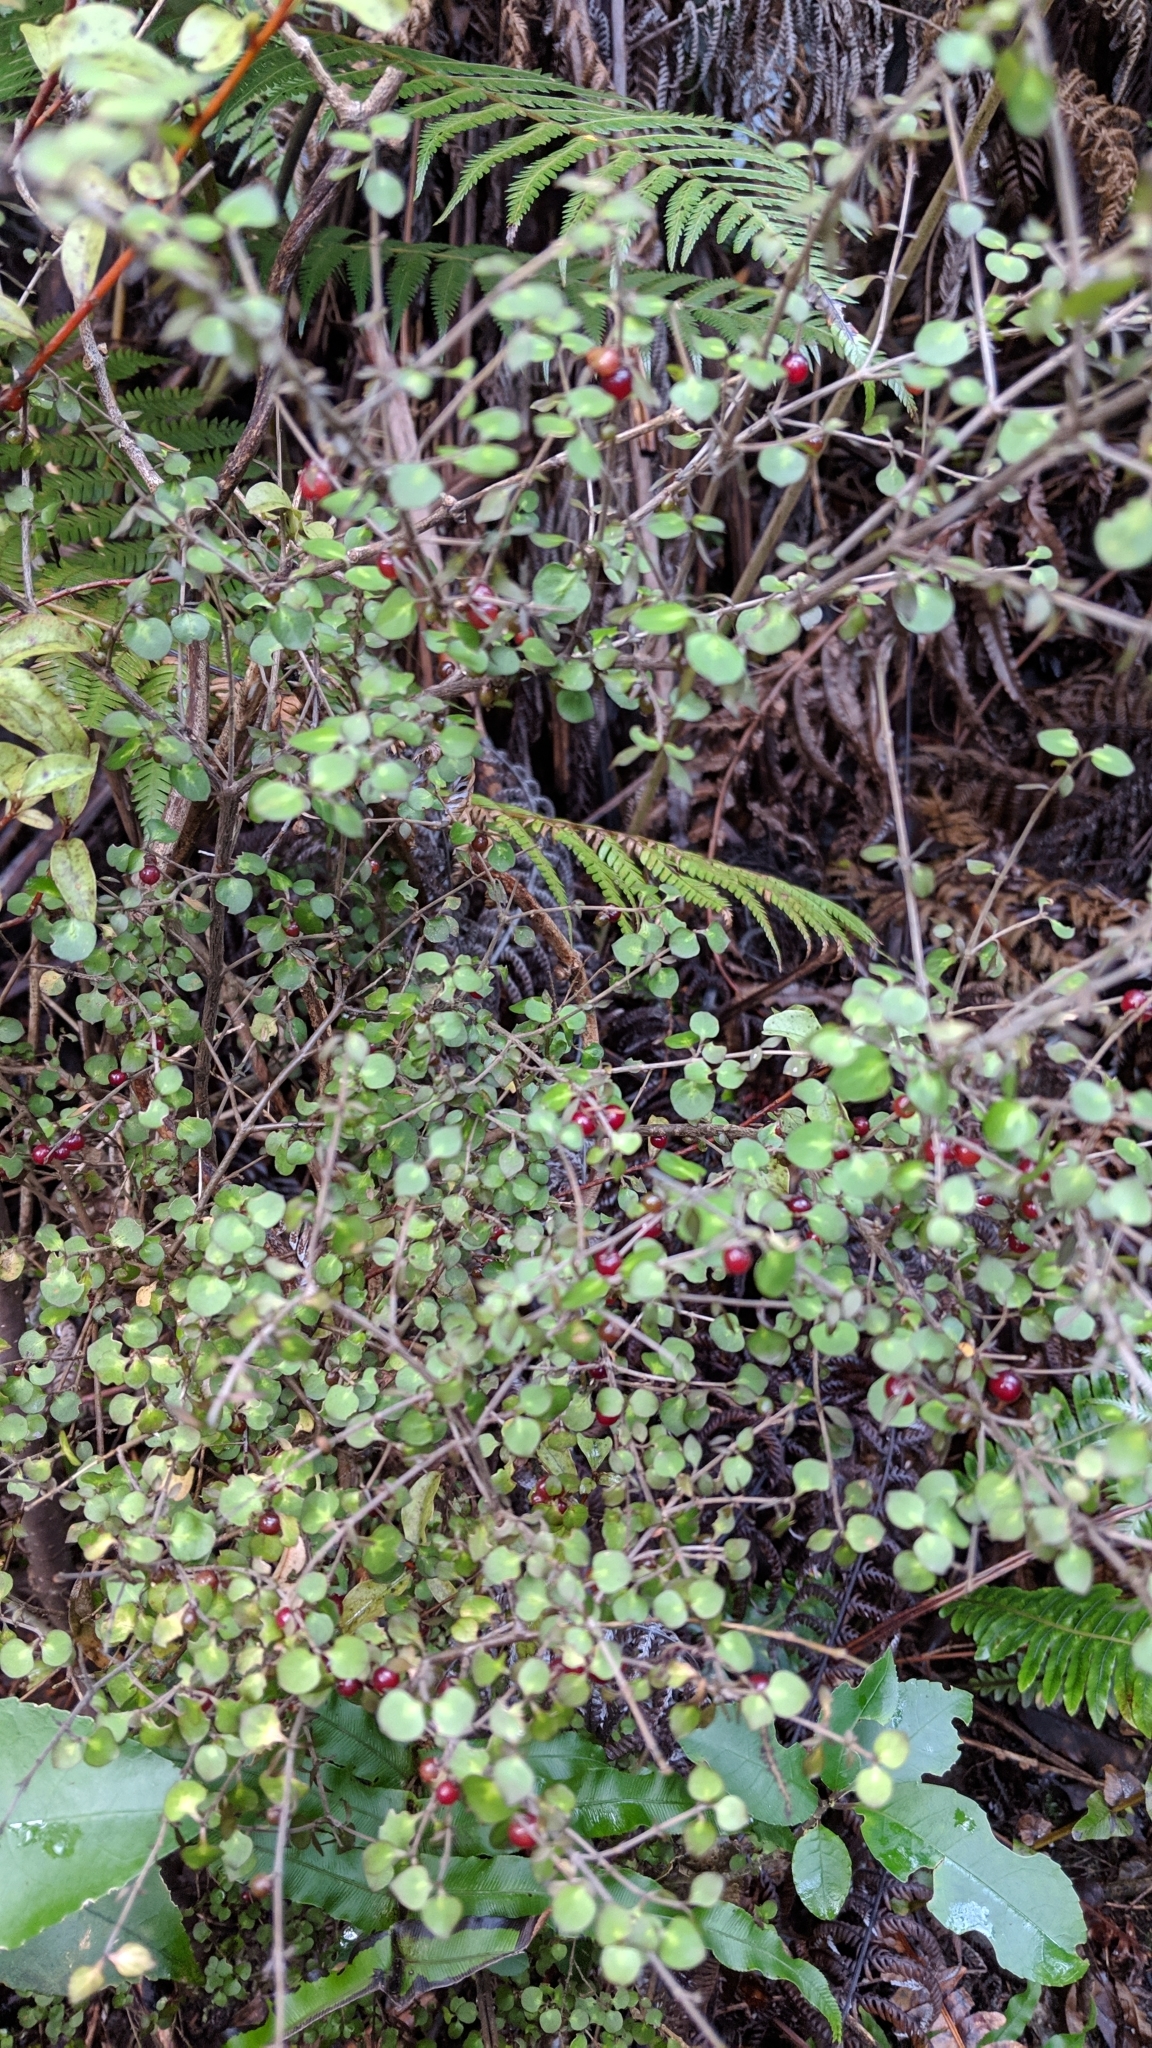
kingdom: Plantae
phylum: Tracheophyta
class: Magnoliopsida
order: Gentianales
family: Rubiaceae
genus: Coprosma
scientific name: Coprosma rhamnoides
